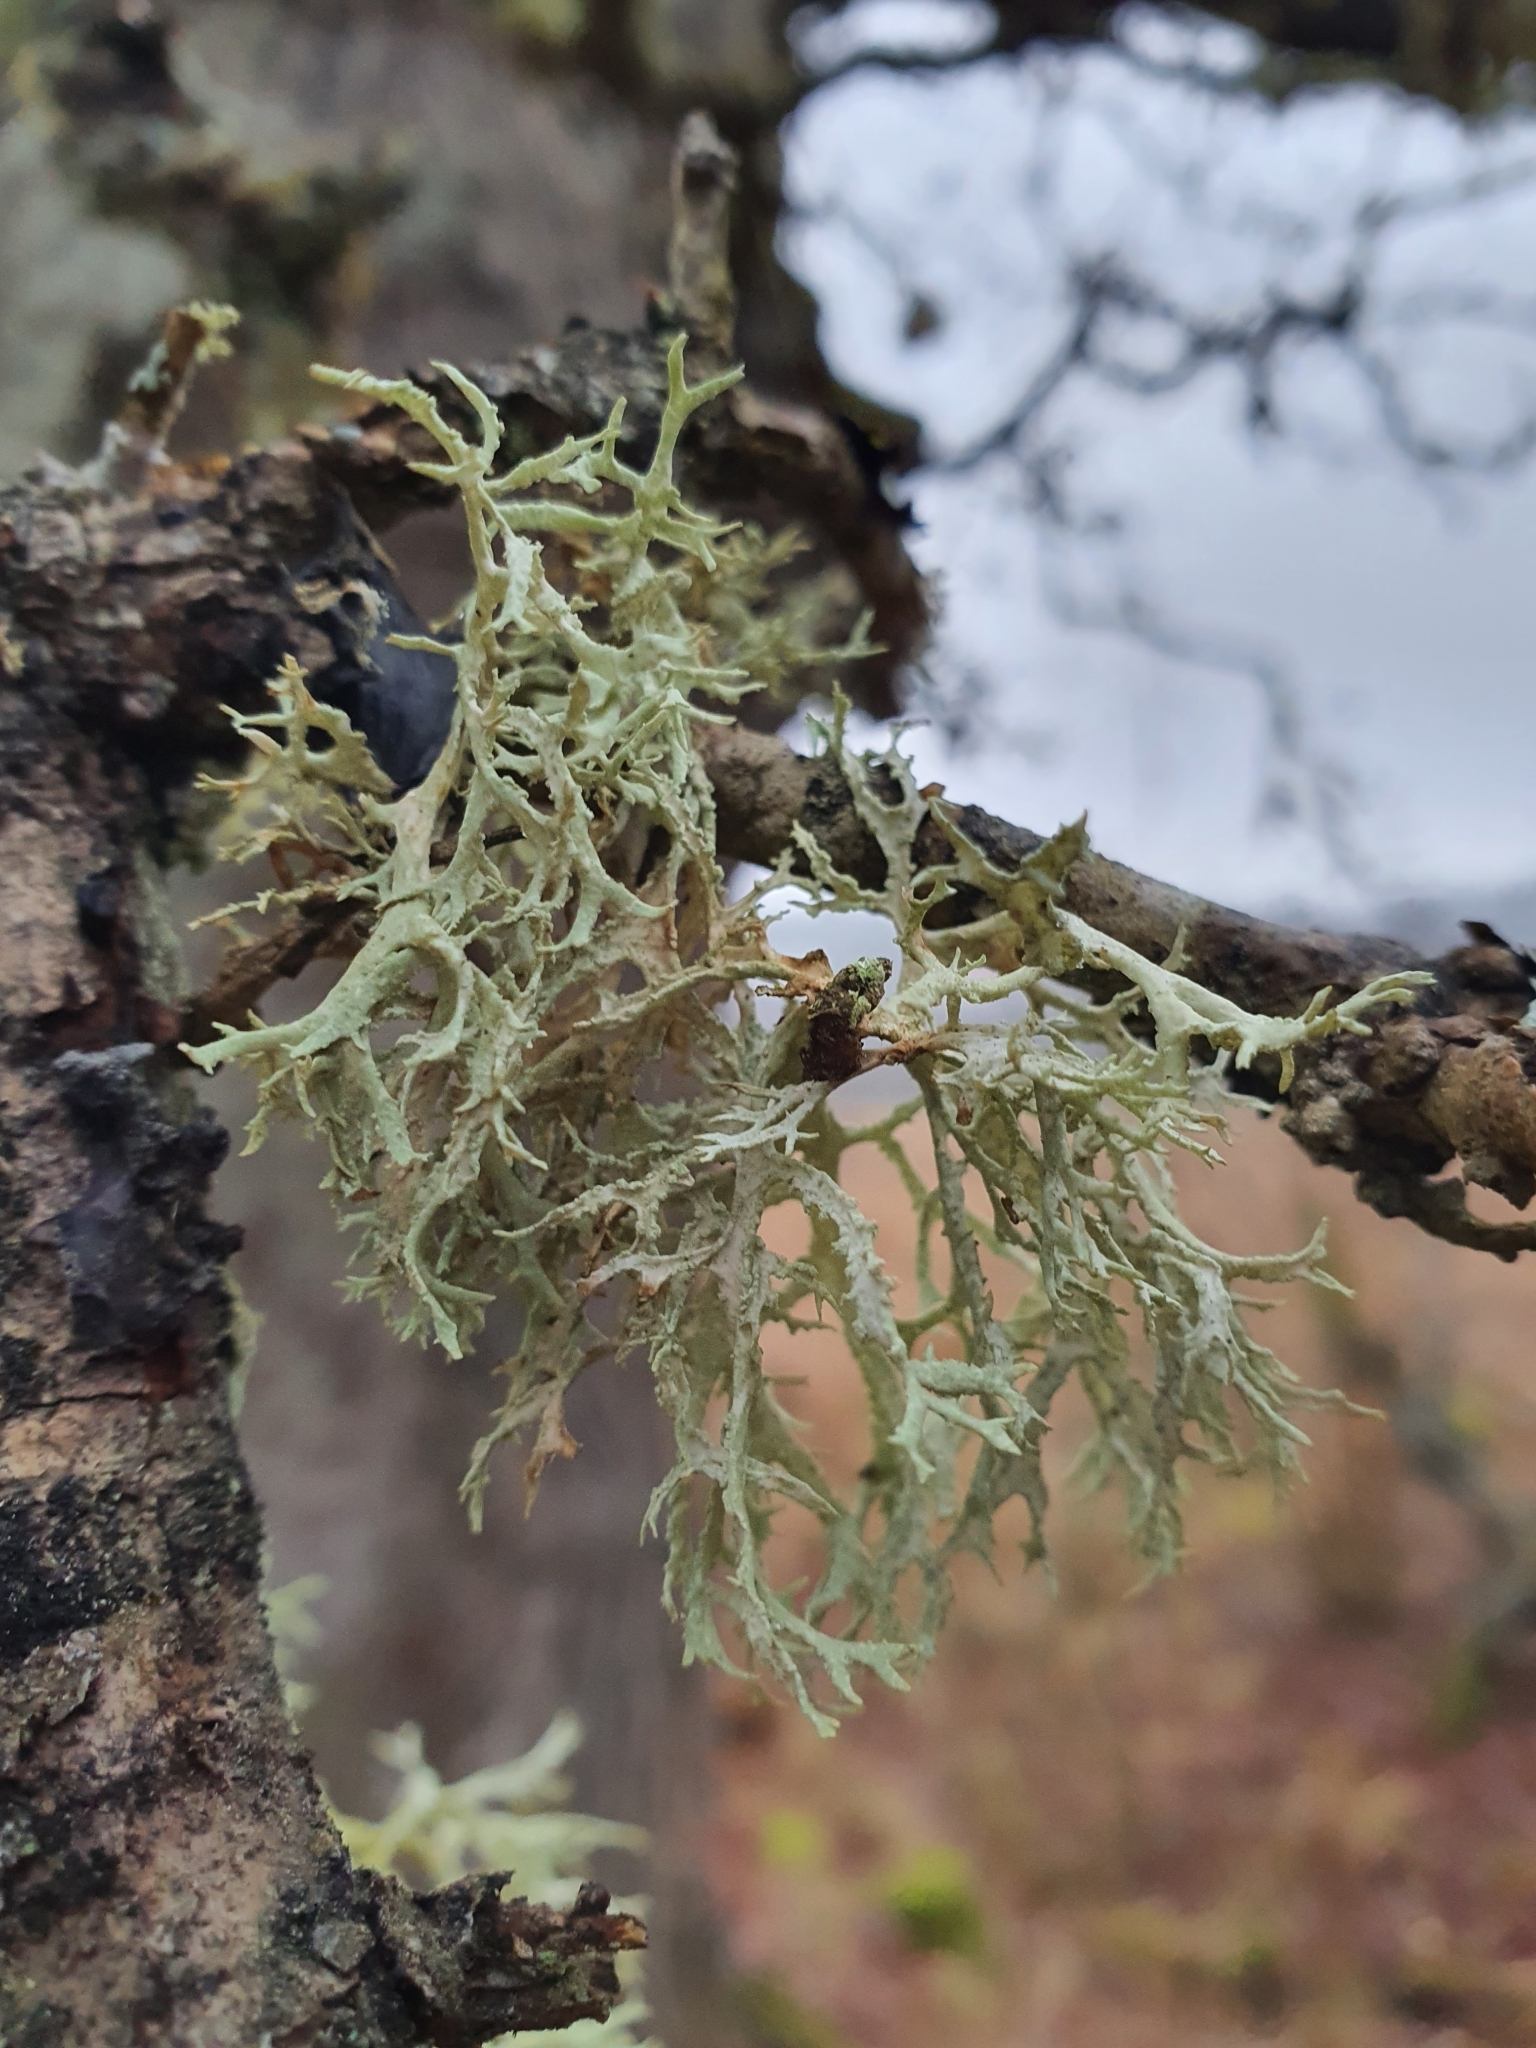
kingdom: Fungi
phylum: Ascomycota
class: Lecanoromycetes
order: Lecanorales
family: Parmeliaceae
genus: Evernia
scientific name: Evernia prunastri
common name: Oak moss
